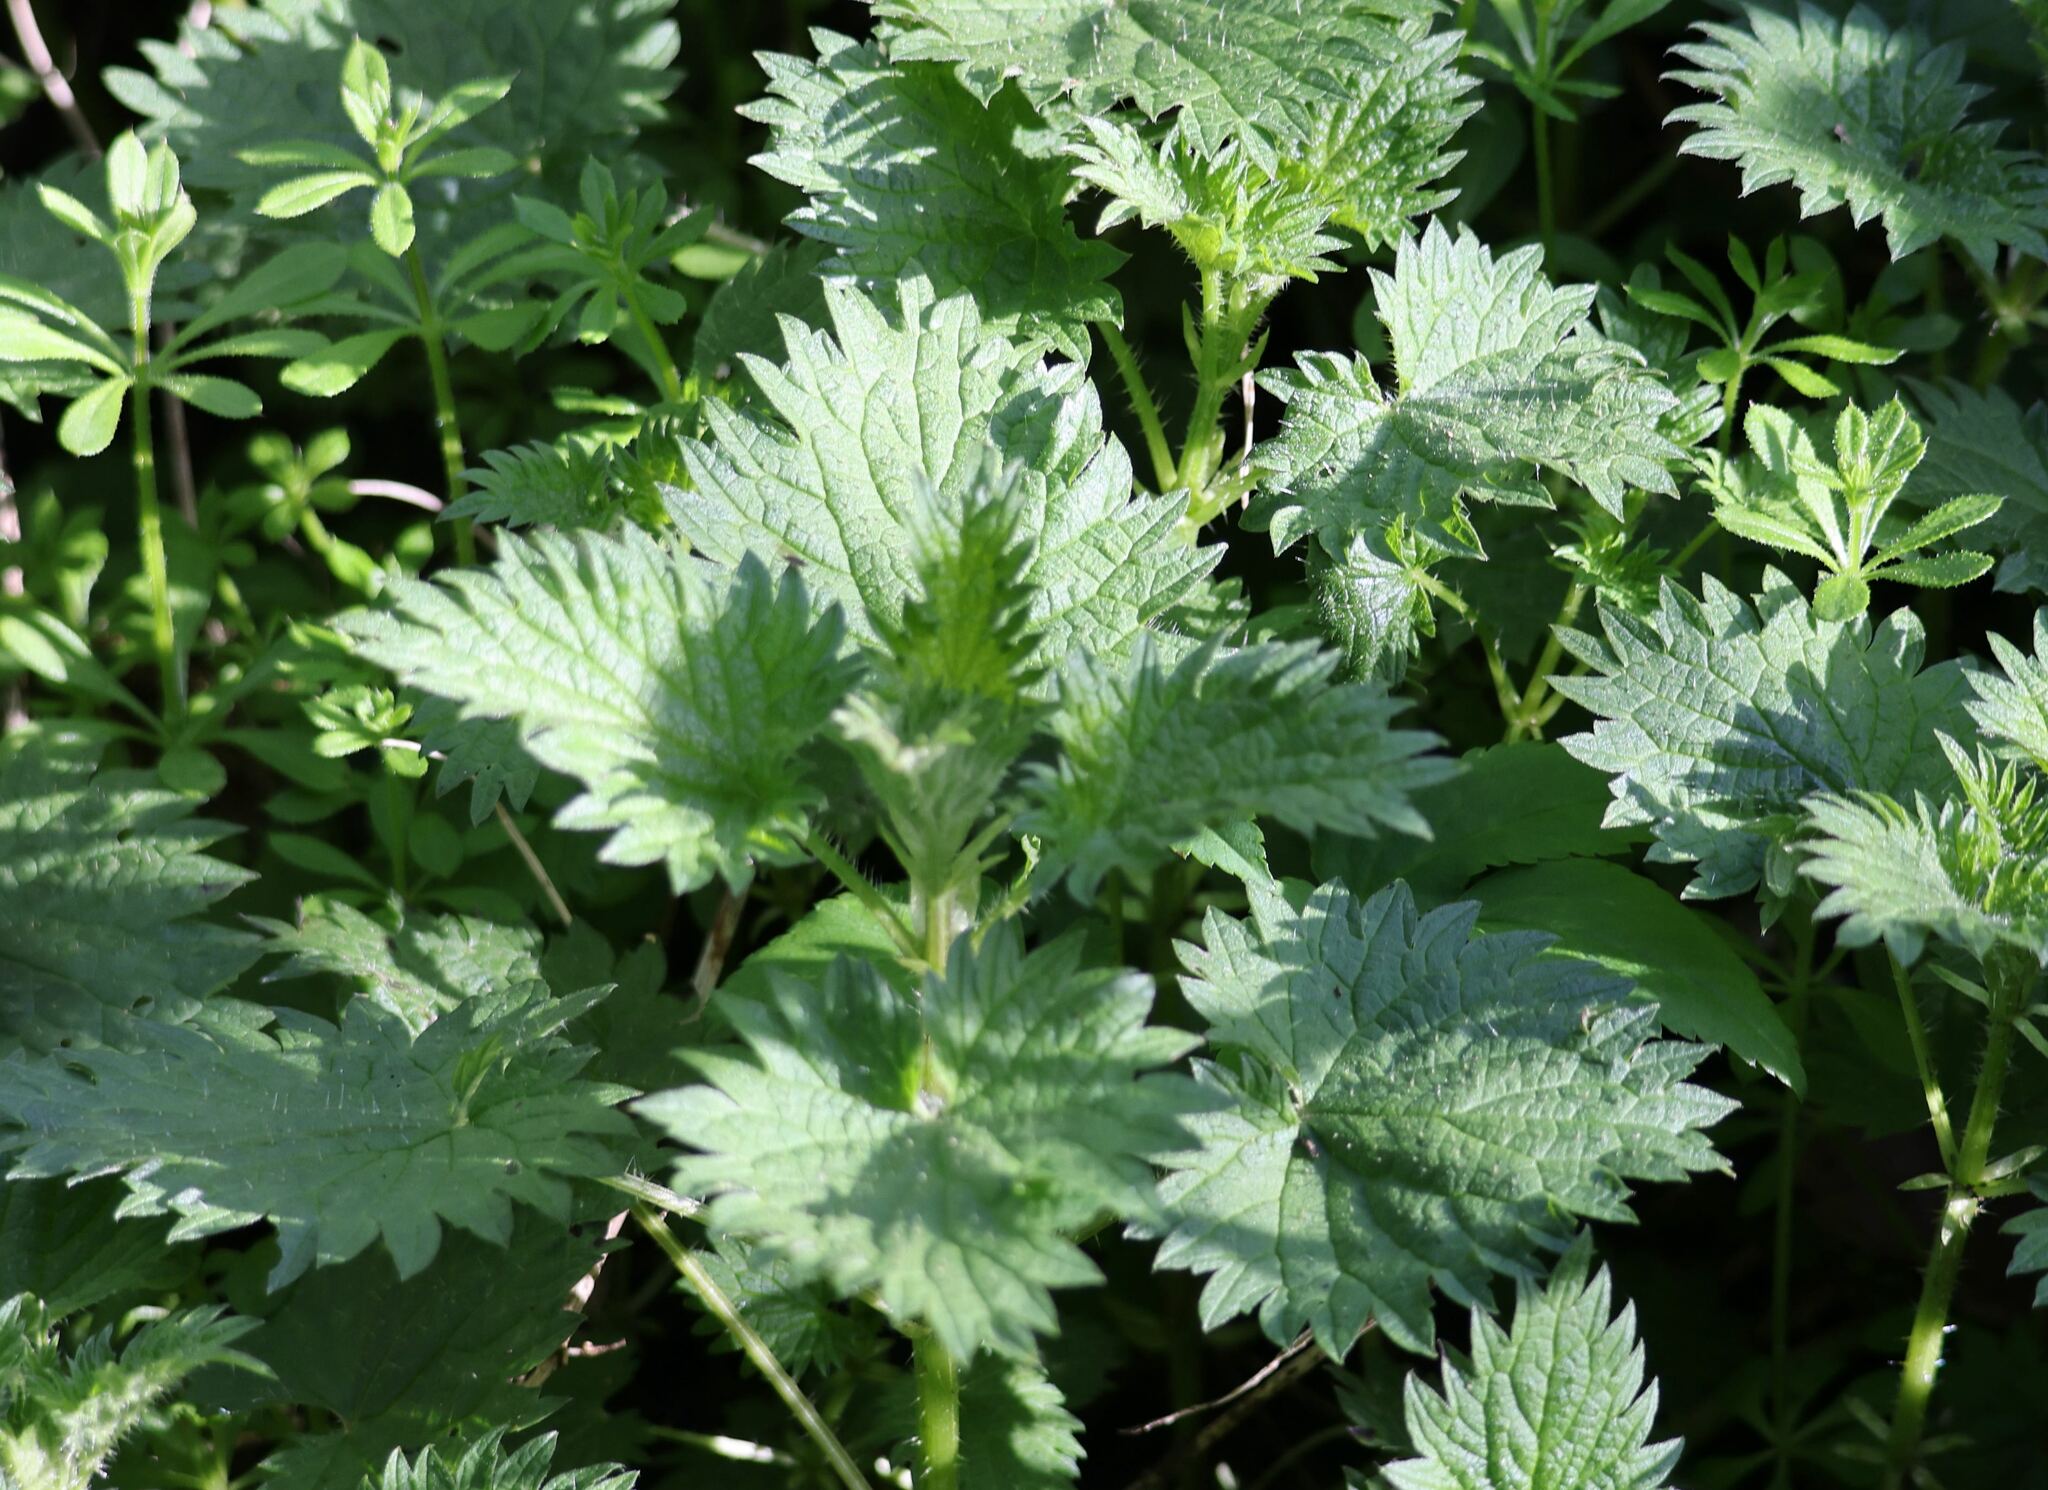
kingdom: Plantae
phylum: Tracheophyta
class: Magnoliopsida
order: Rosales
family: Urticaceae
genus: Urtica
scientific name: Urtica dioica
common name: Common nettle
